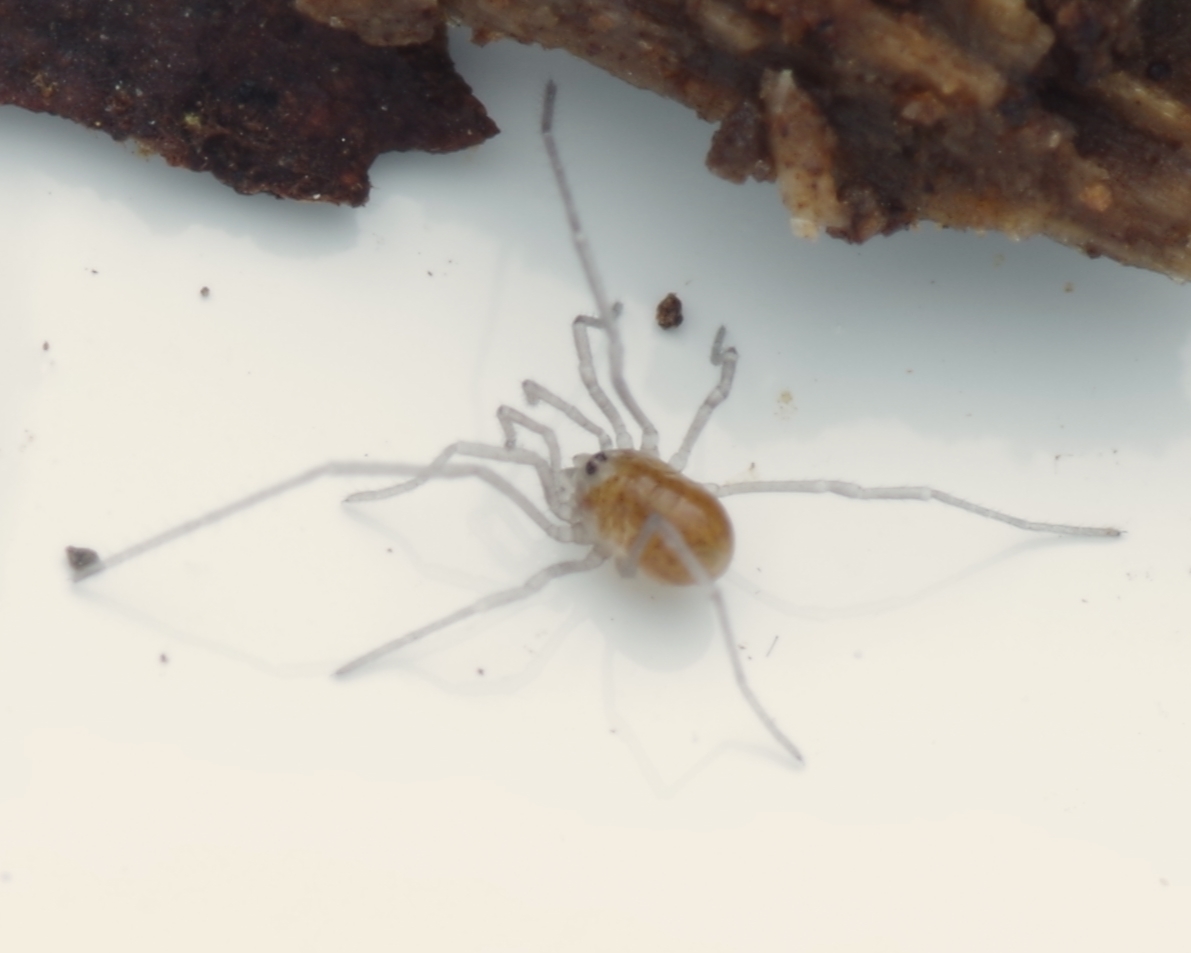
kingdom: Animalia
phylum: Arthropoda
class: Arachnida
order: Opiliones
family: Nemastomatidae
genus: Mitostoma
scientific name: Mitostoma chrysomelas
